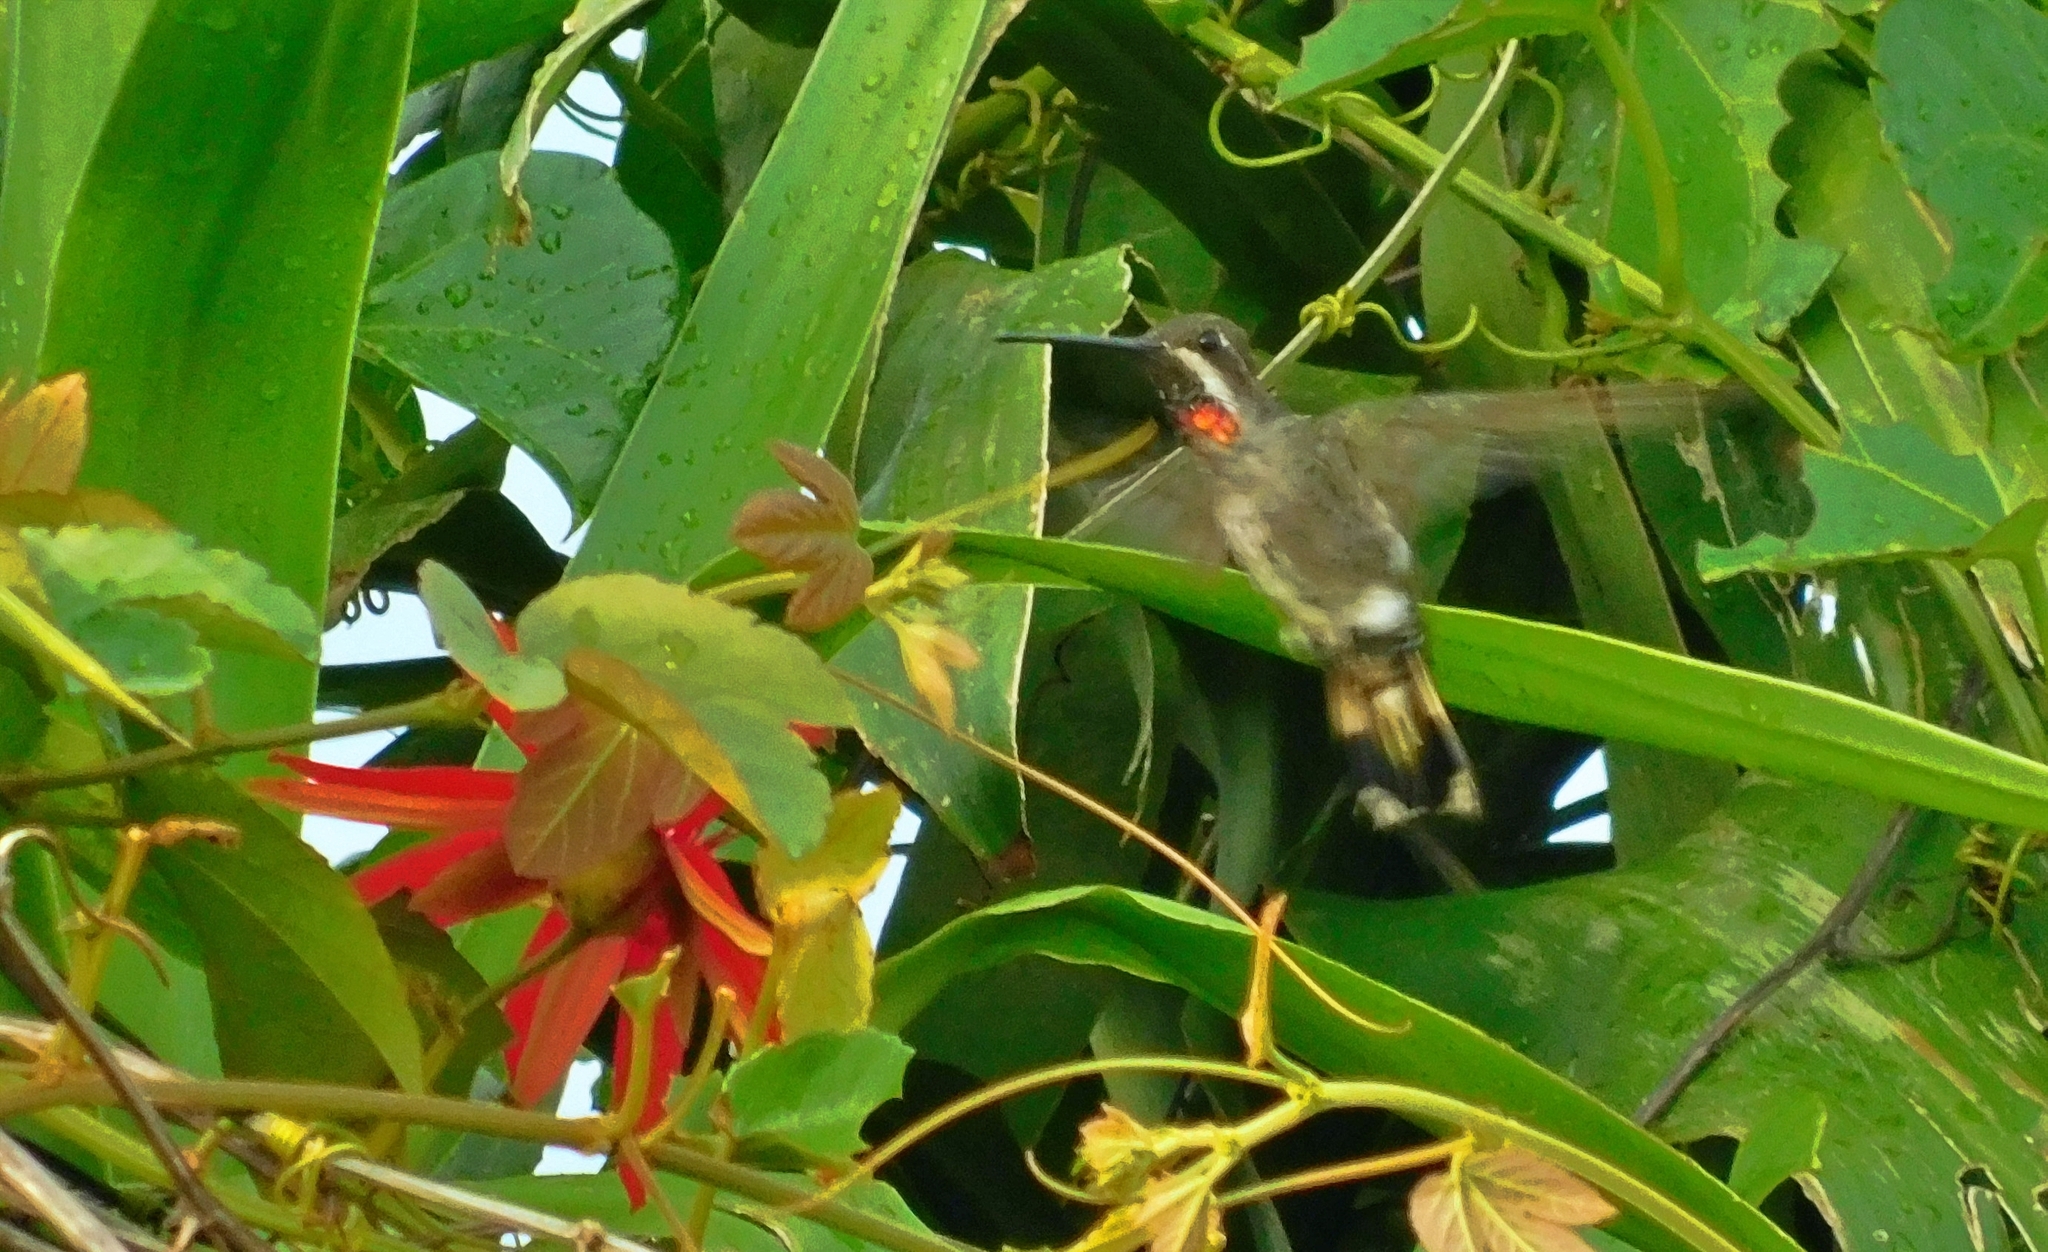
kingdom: Animalia
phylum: Chordata
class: Aves
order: Apodiformes
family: Trochilidae
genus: Heliomaster
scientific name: Heliomaster constantii
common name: Plain-capped starthroat
